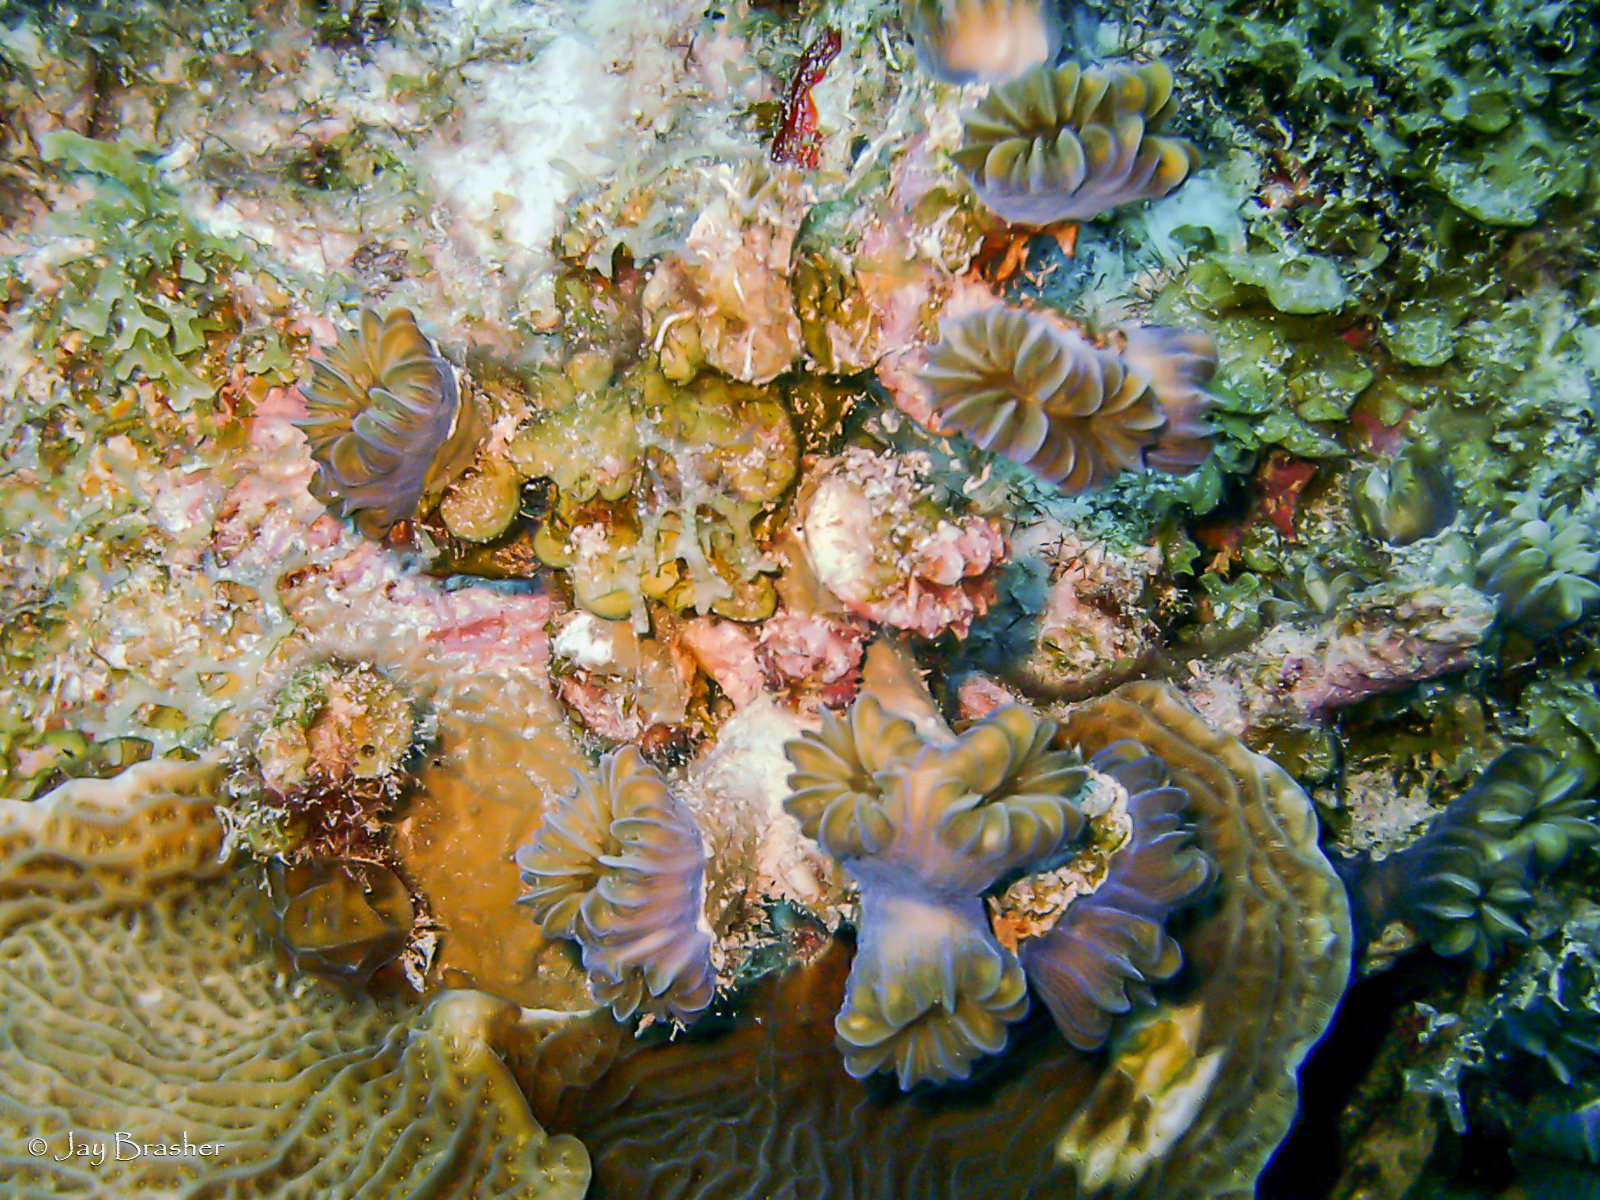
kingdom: Animalia
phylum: Cnidaria
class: Anthozoa
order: Scleractinia
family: Meandrinidae
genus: Eusmilia
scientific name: Eusmilia fastigiata
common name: Smooth flower coral
